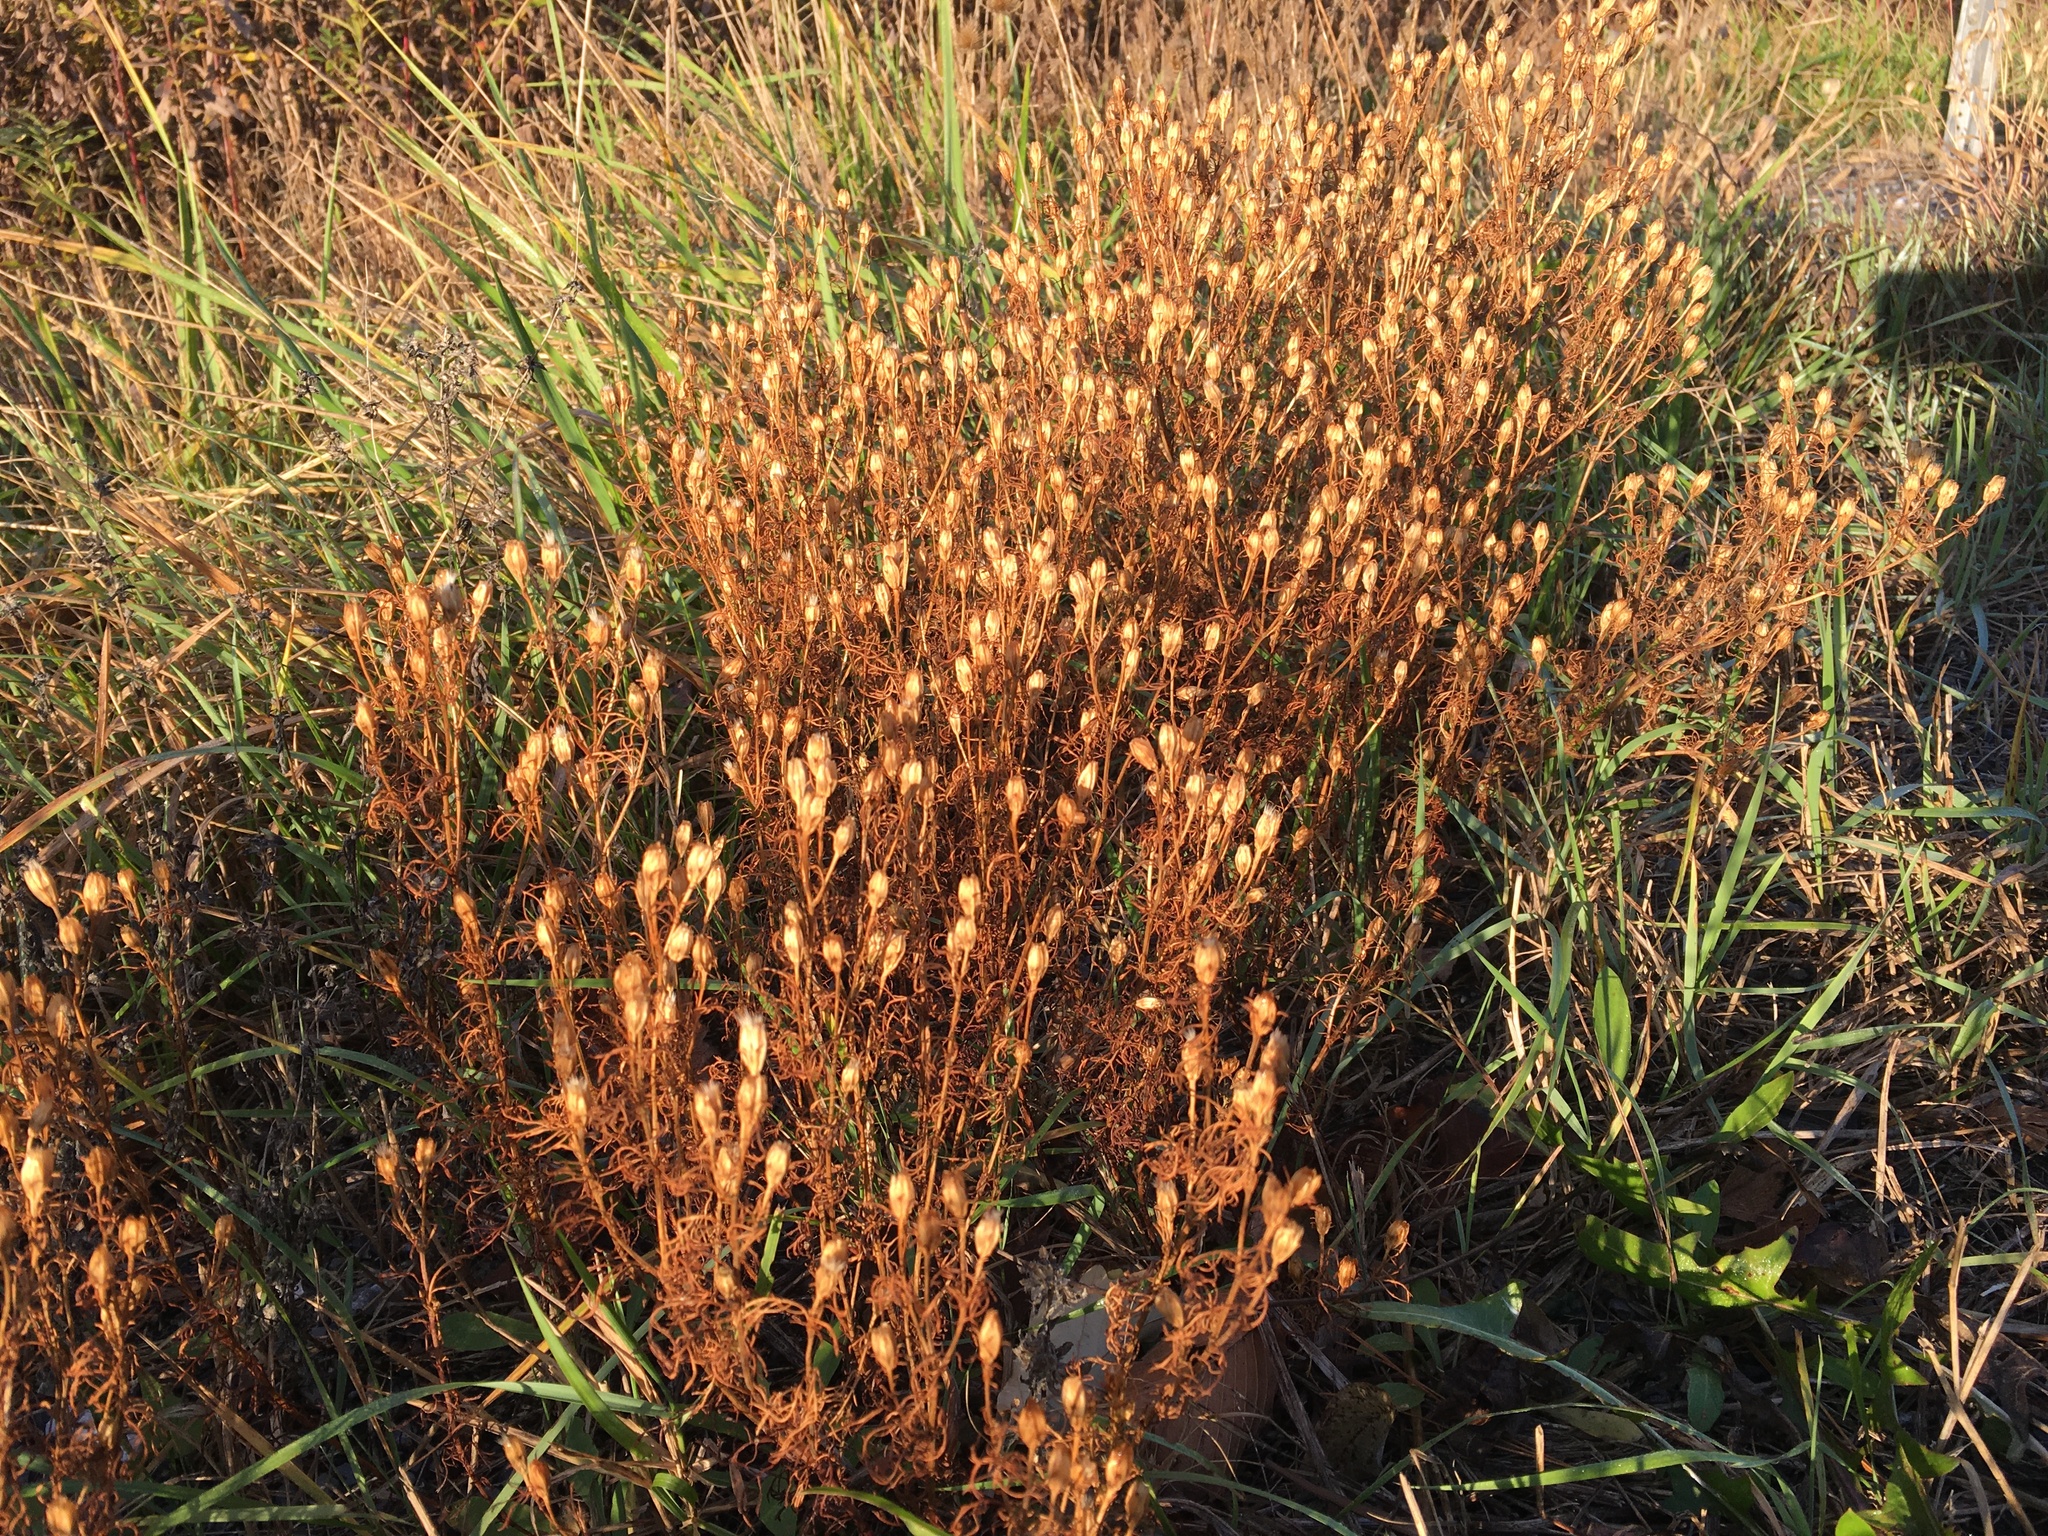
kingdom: Plantae
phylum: Tracheophyta
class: Magnoliopsida
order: Asterales
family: Asteraceae
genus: Dyssodia
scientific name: Dyssodia papposa
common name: Dogweed
